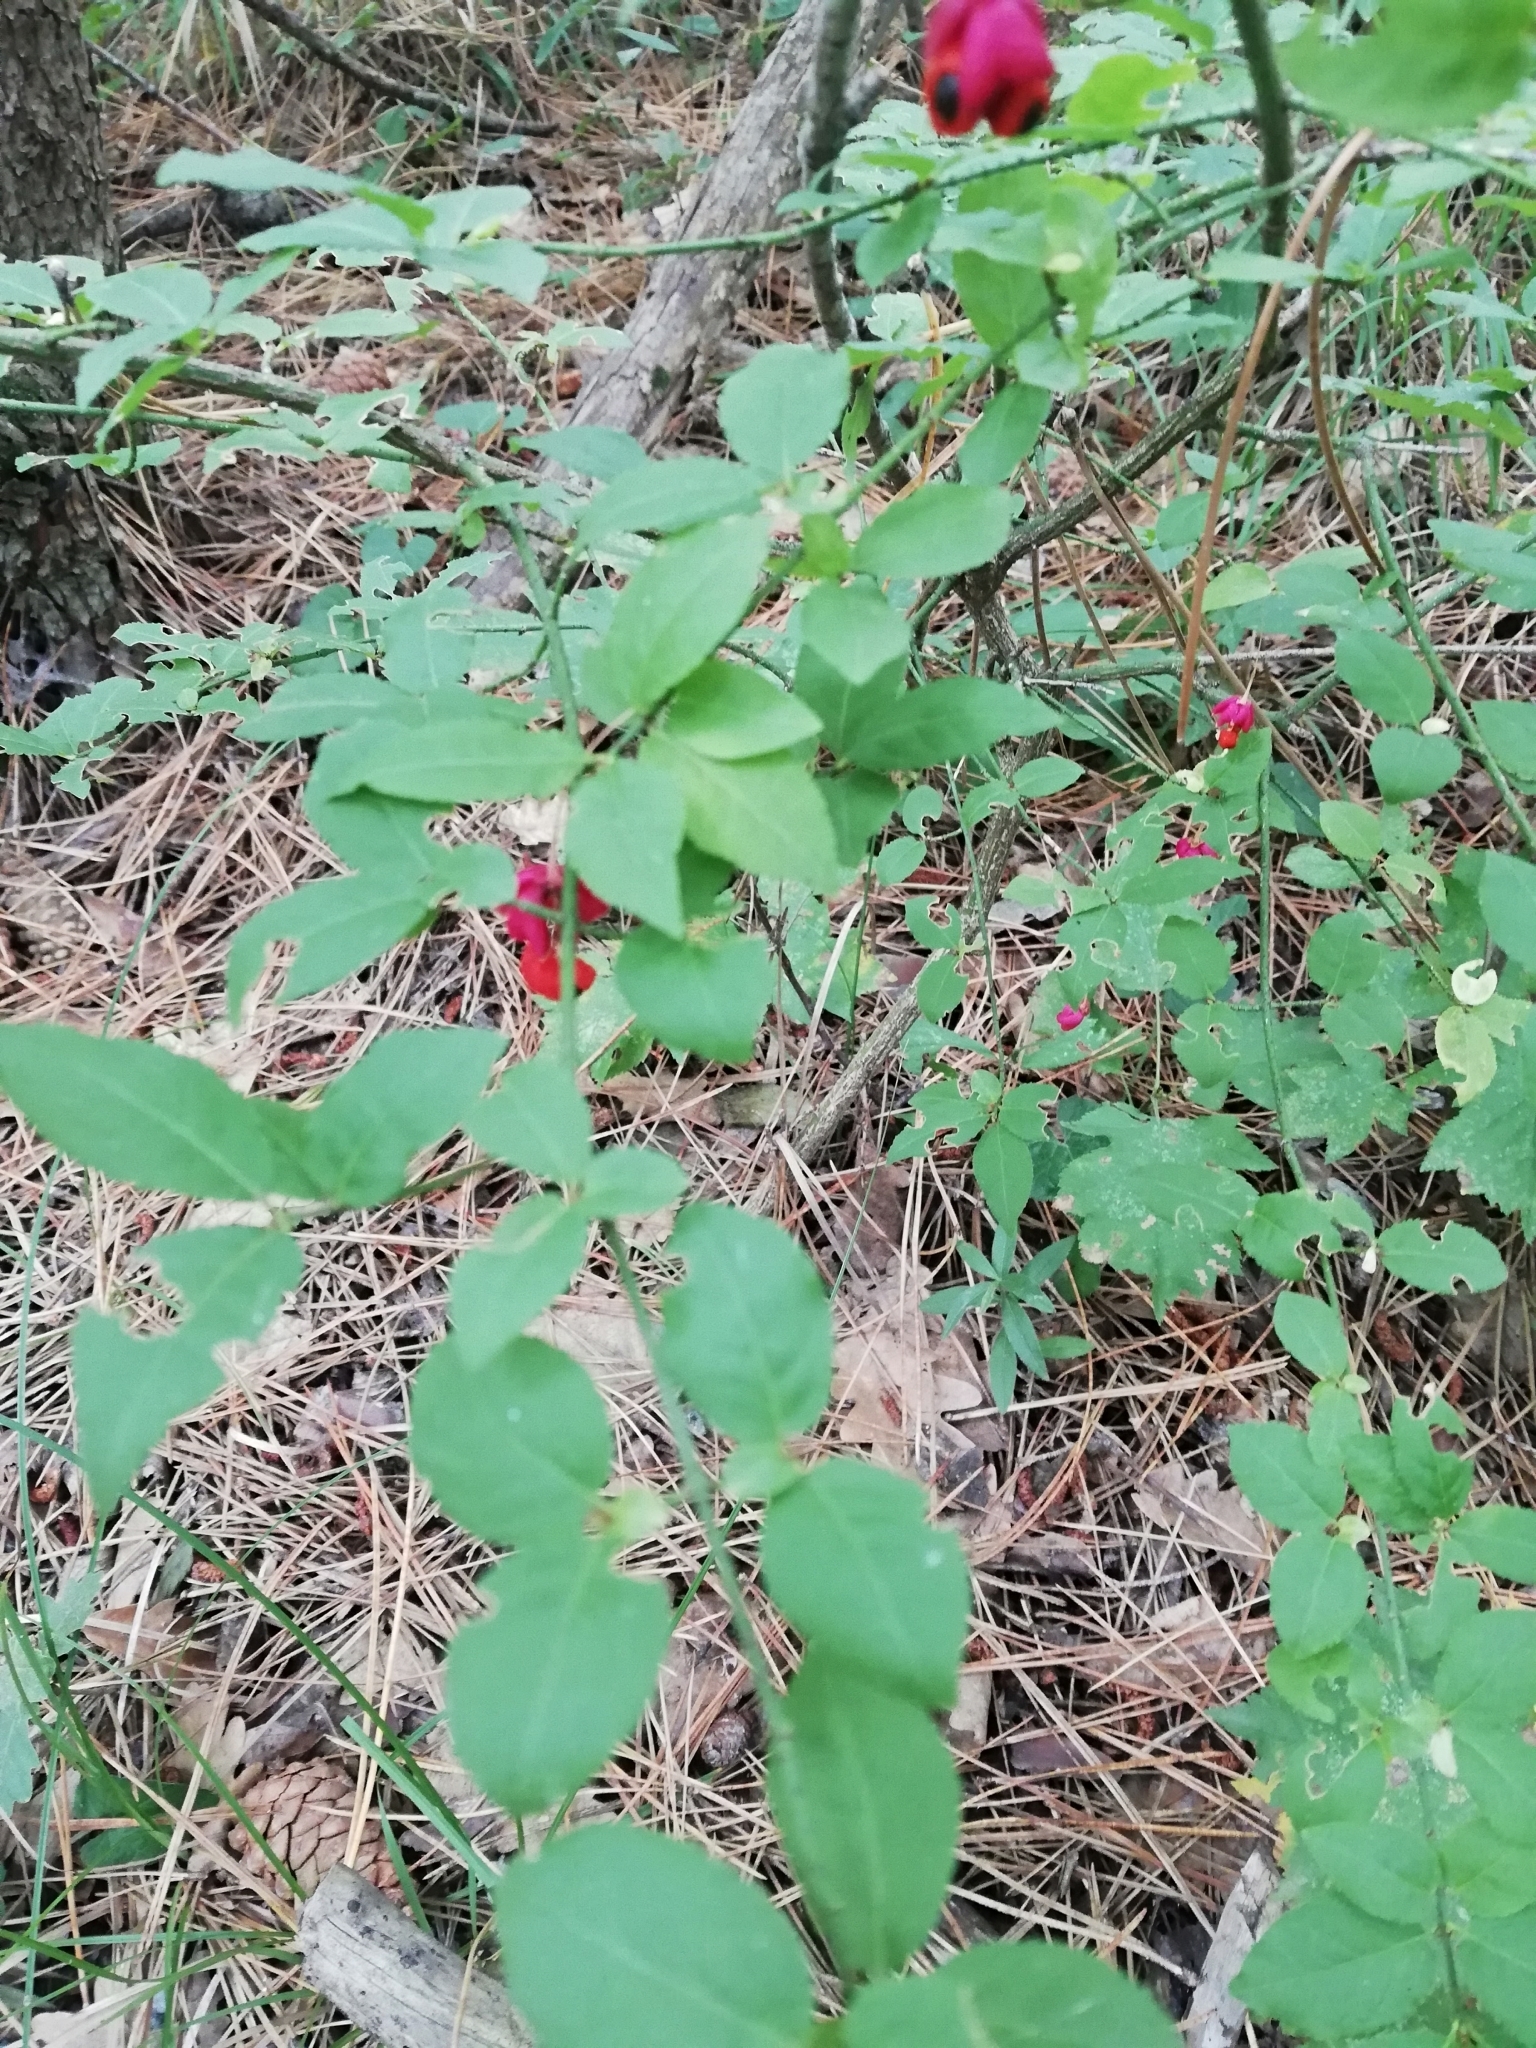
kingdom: Plantae
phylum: Tracheophyta
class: Magnoliopsida
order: Celastrales
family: Celastraceae
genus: Euonymus
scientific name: Euonymus verrucosus
